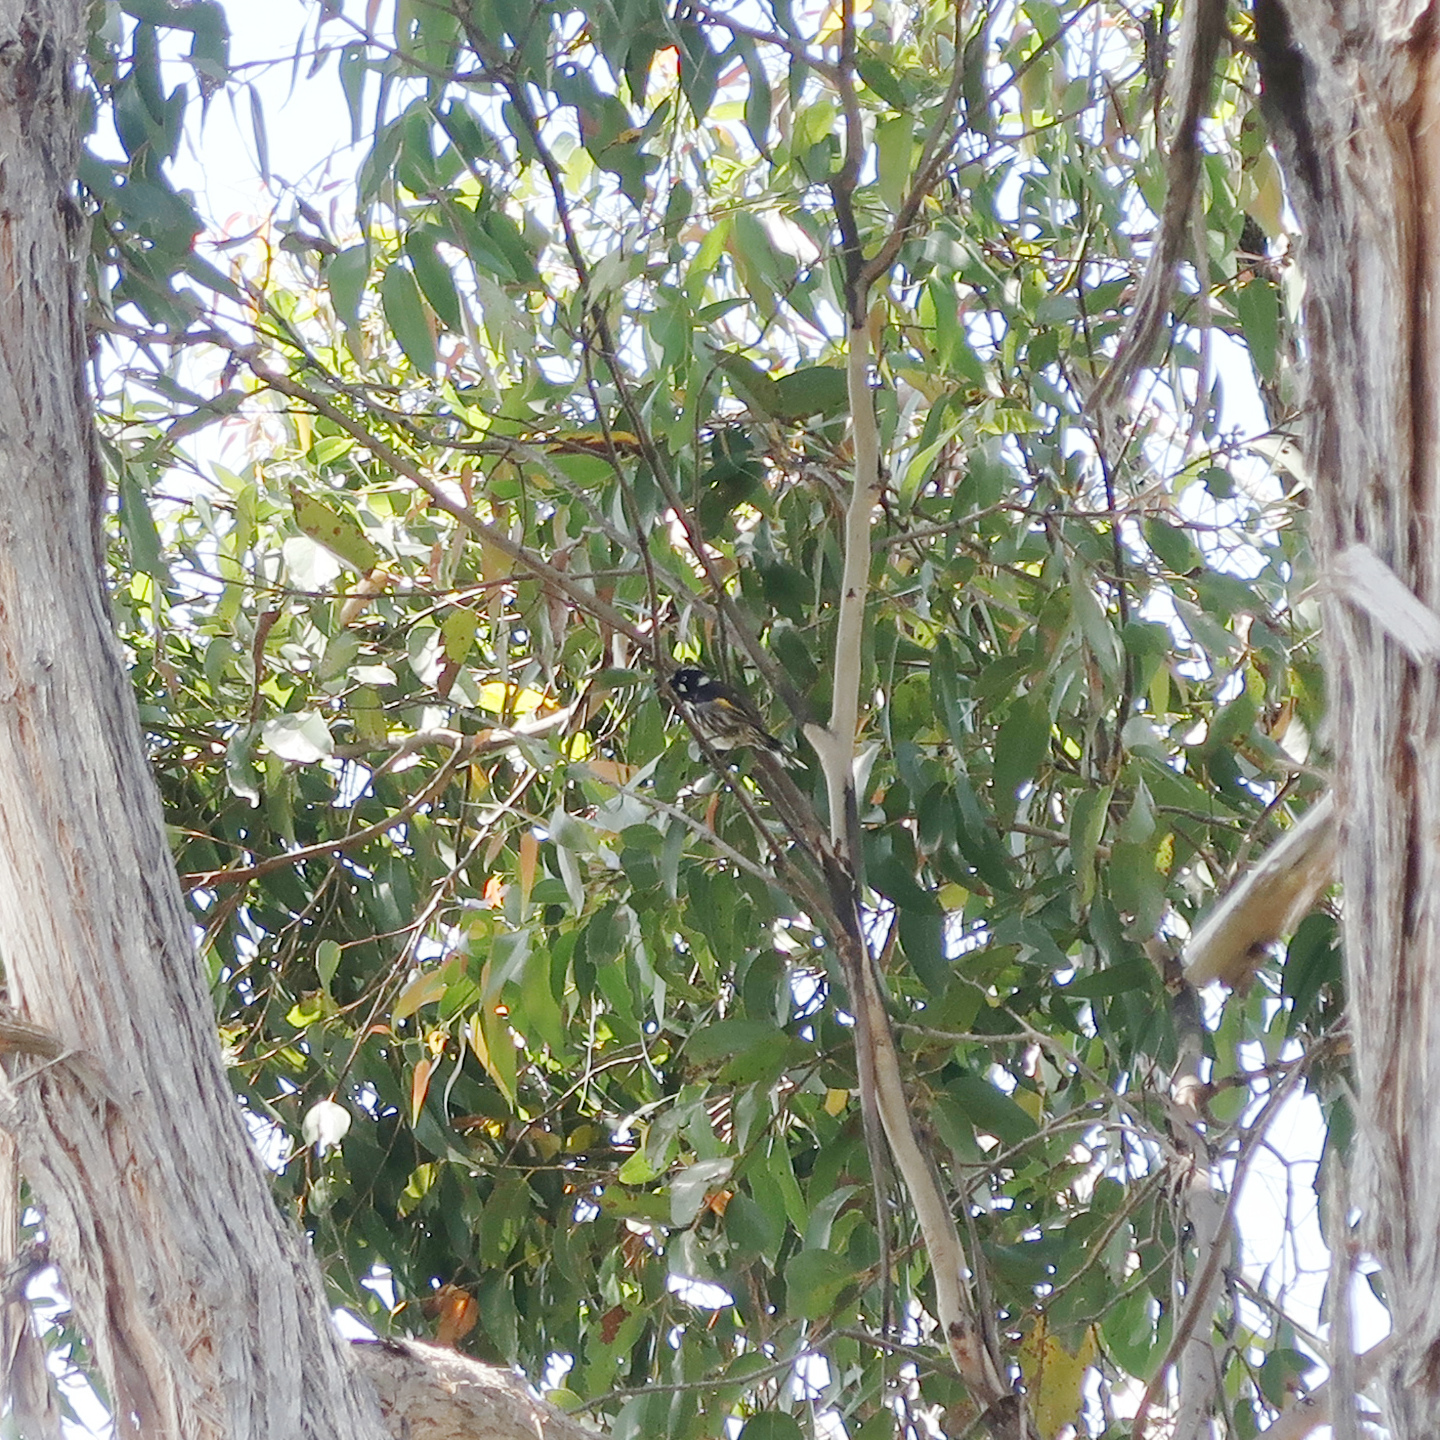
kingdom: Animalia
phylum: Chordata
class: Aves
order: Passeriformes
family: Meliphagidae
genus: Phylidonyris
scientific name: Phylidonyris novaehollandiae
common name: New holland honeyeater
